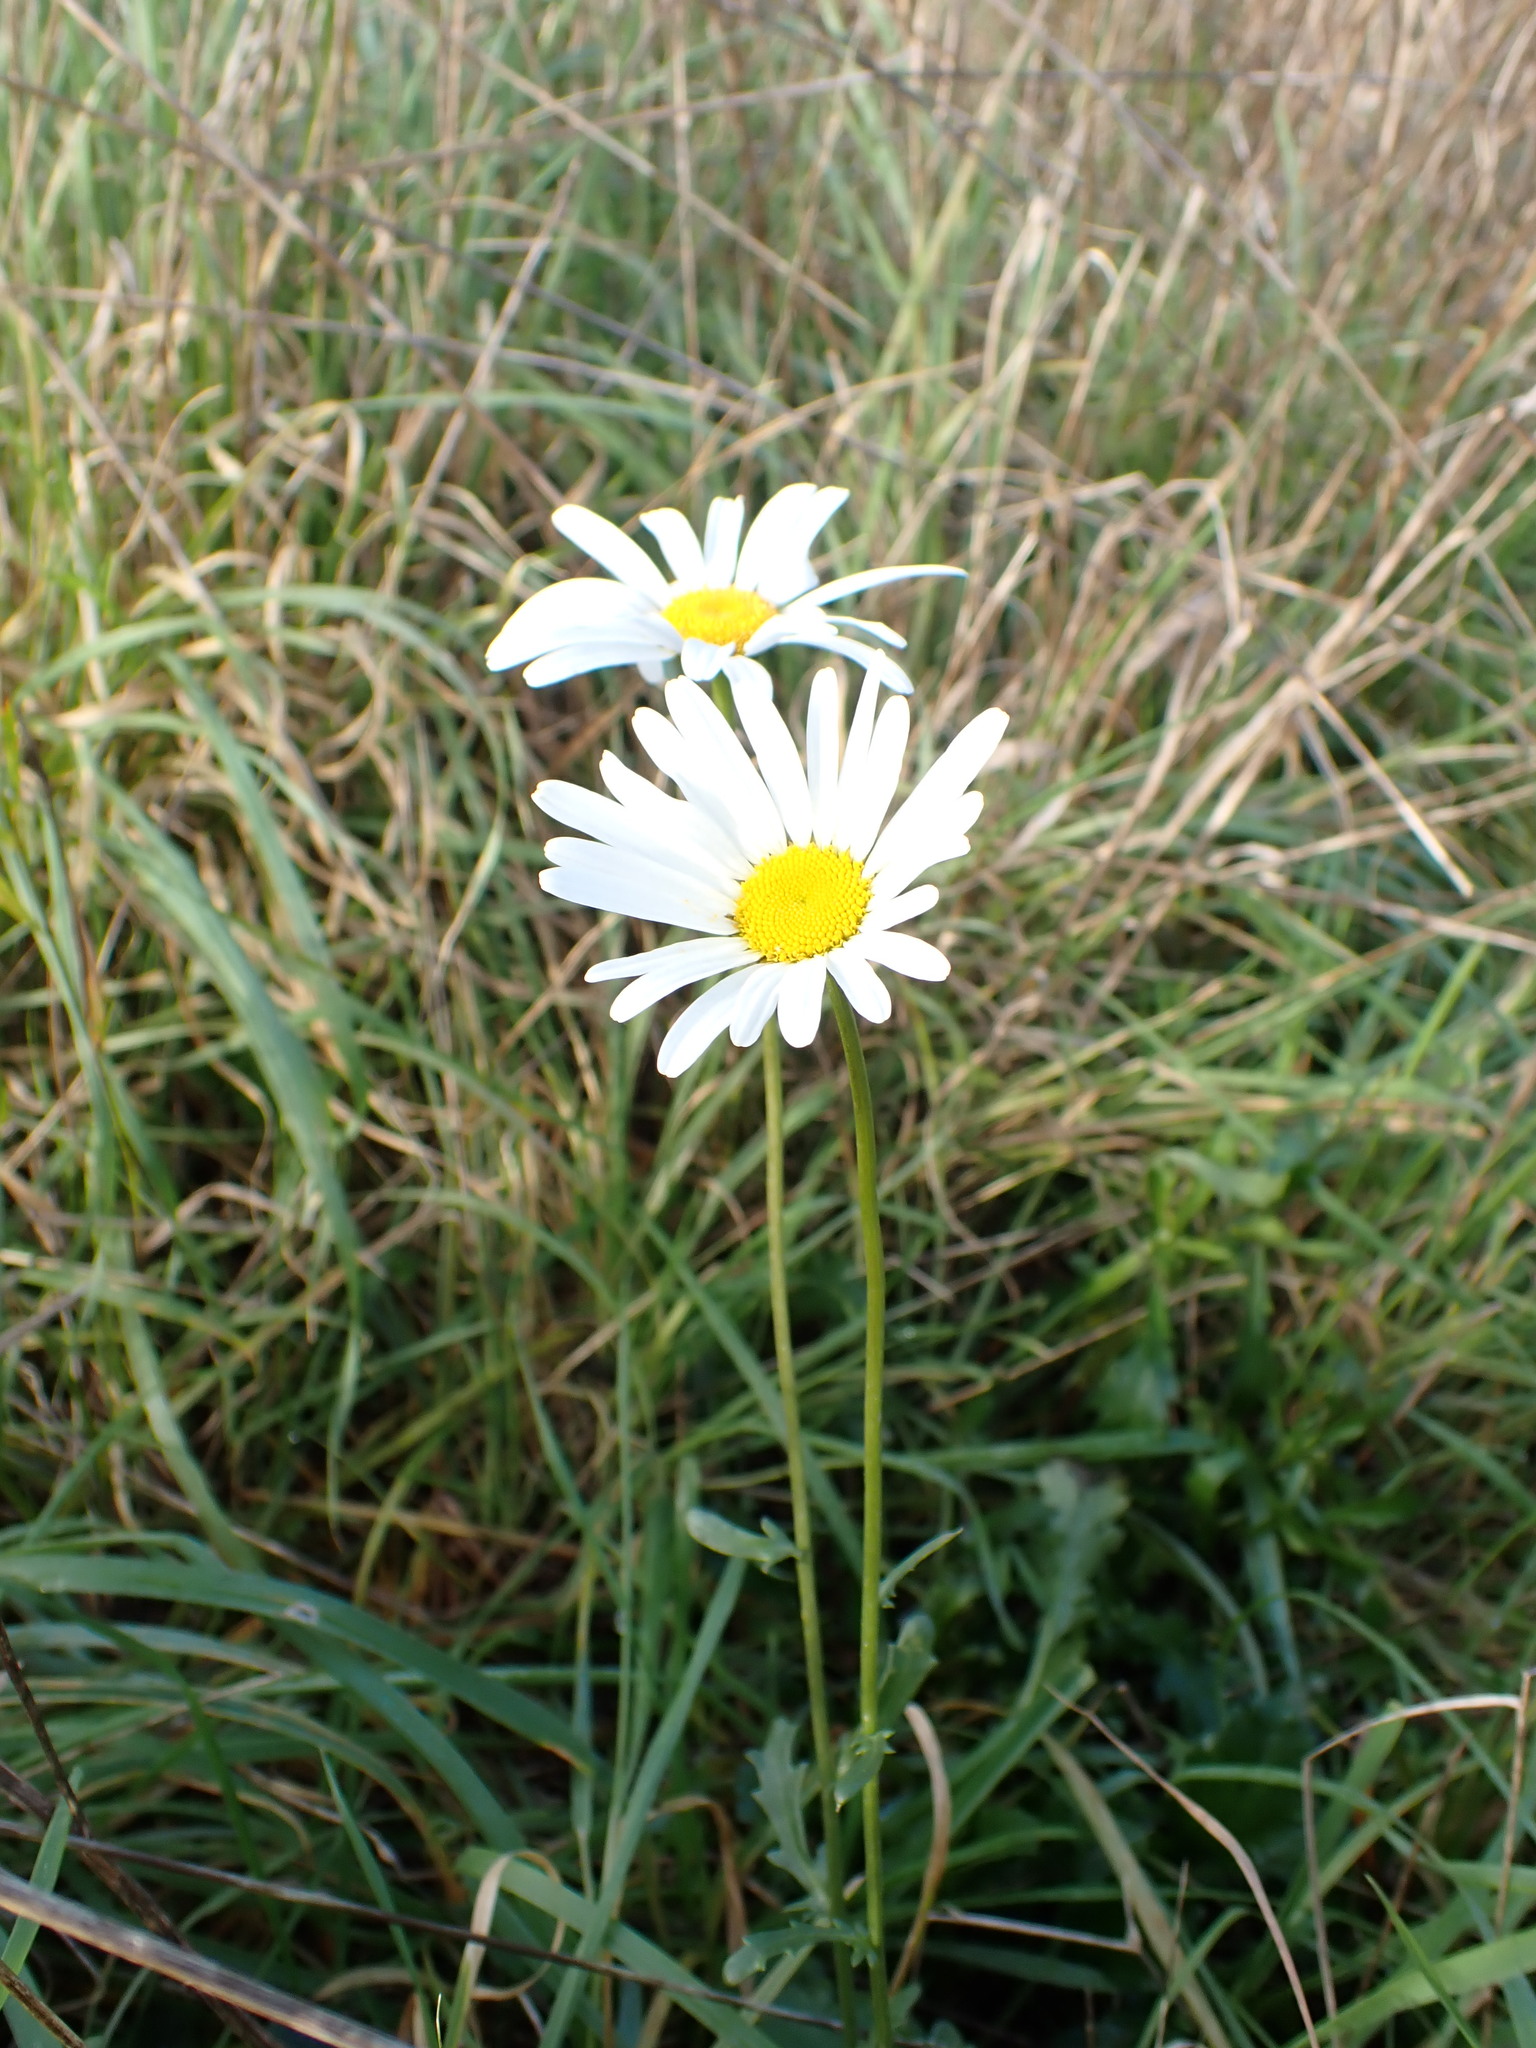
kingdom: Plantae
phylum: Tracheophyta
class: Magnoliopsida
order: Asterales
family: Asteraceae
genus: Leucanthemum
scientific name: Leucanthemum vulgare
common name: Oxeye daisy
